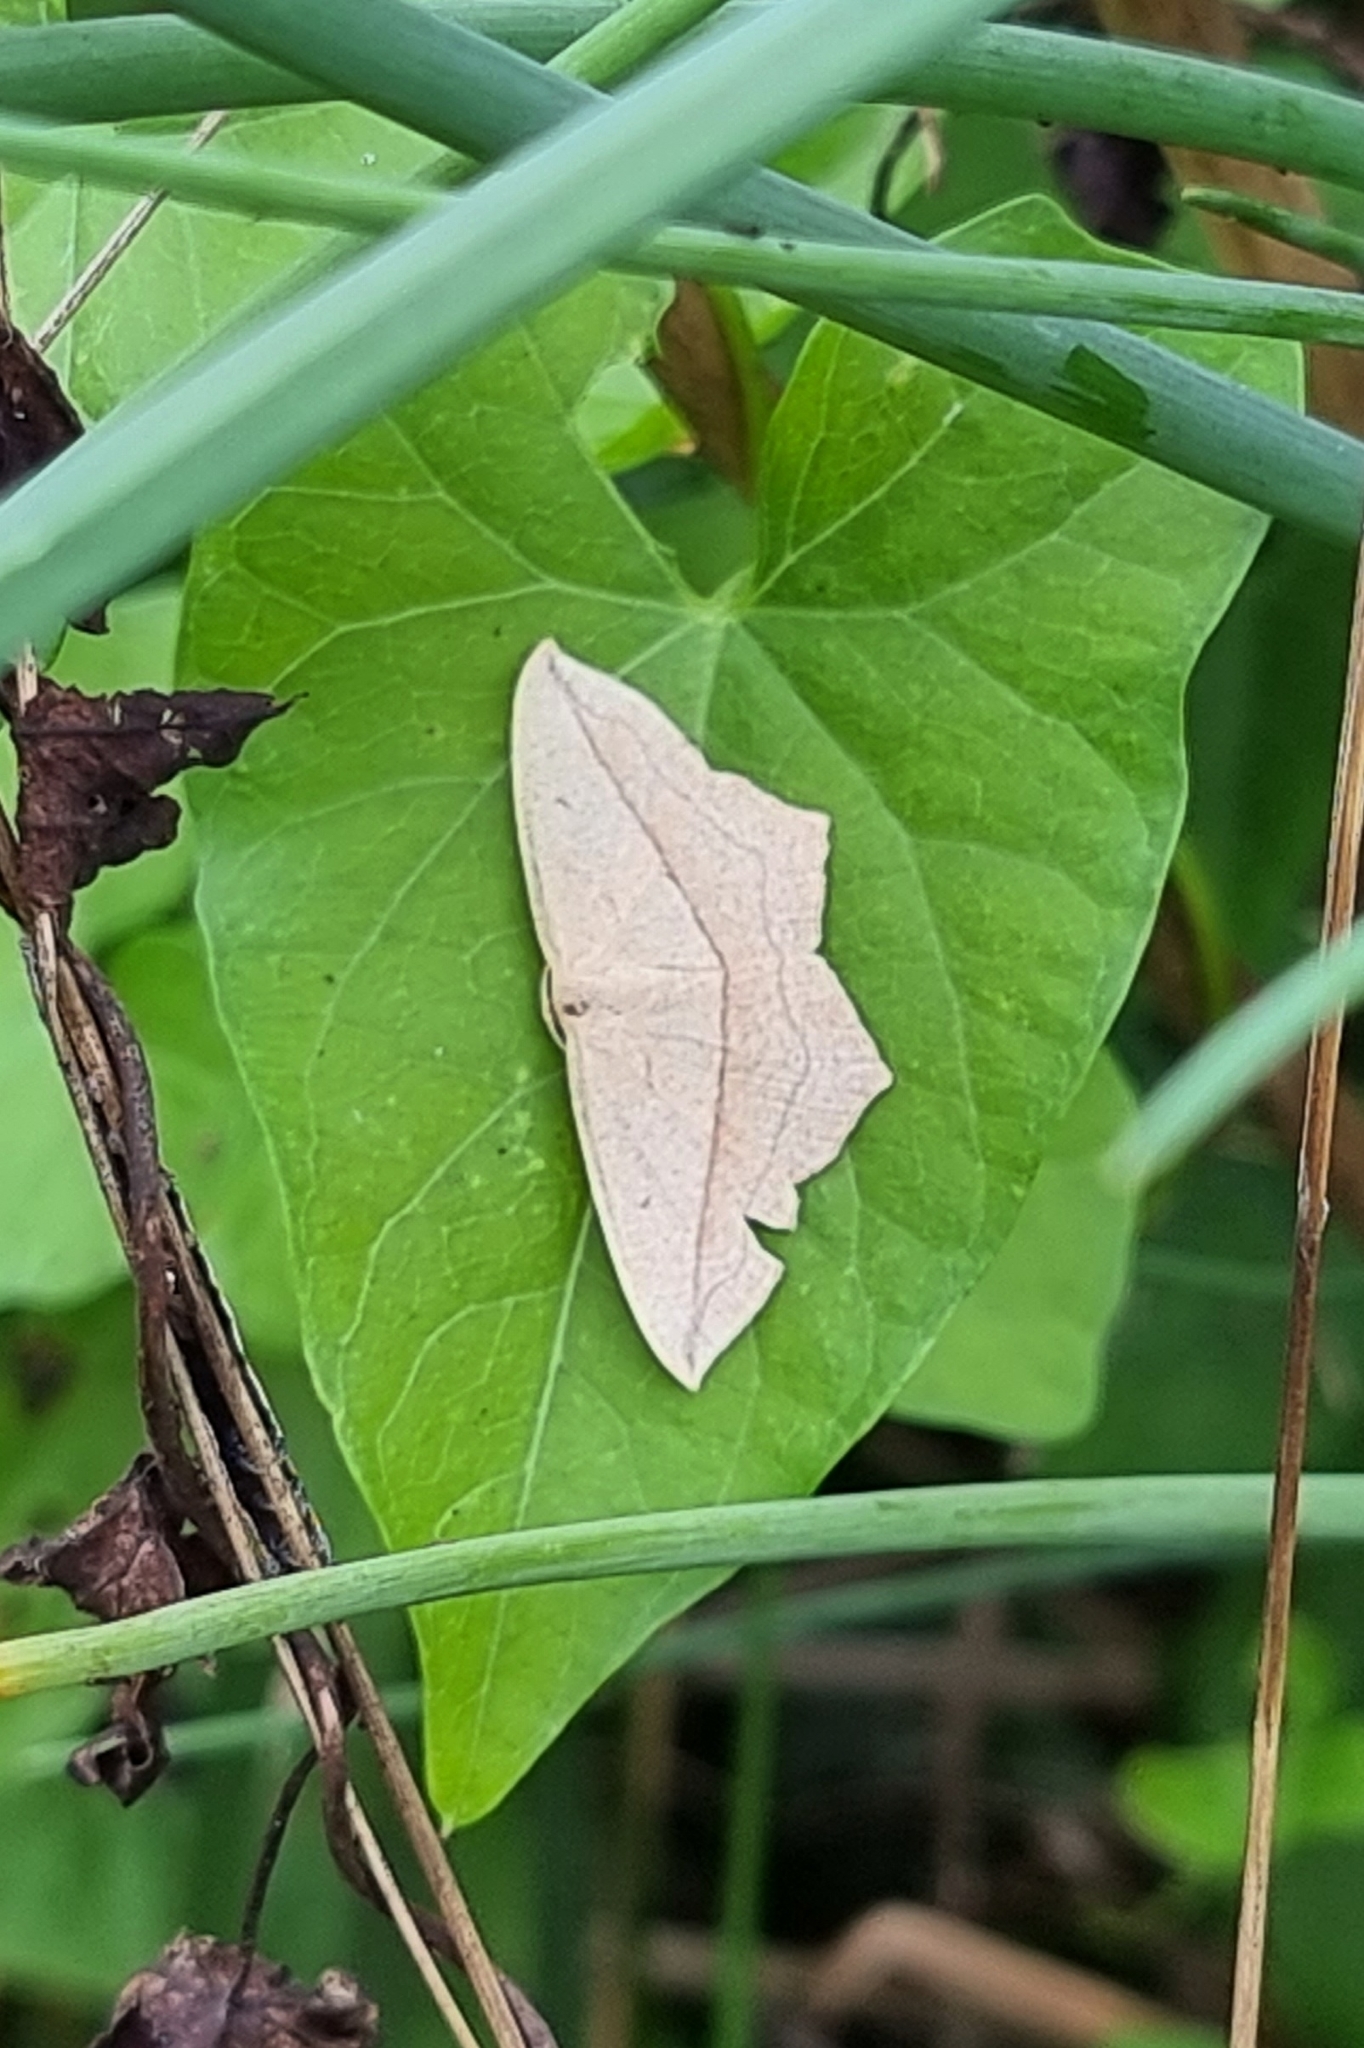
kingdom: Animalia
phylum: Arthropoda
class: Insecta
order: Lepidoptera
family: Geometridae
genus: Timandra
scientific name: Timandra comae
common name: Blood-vein
